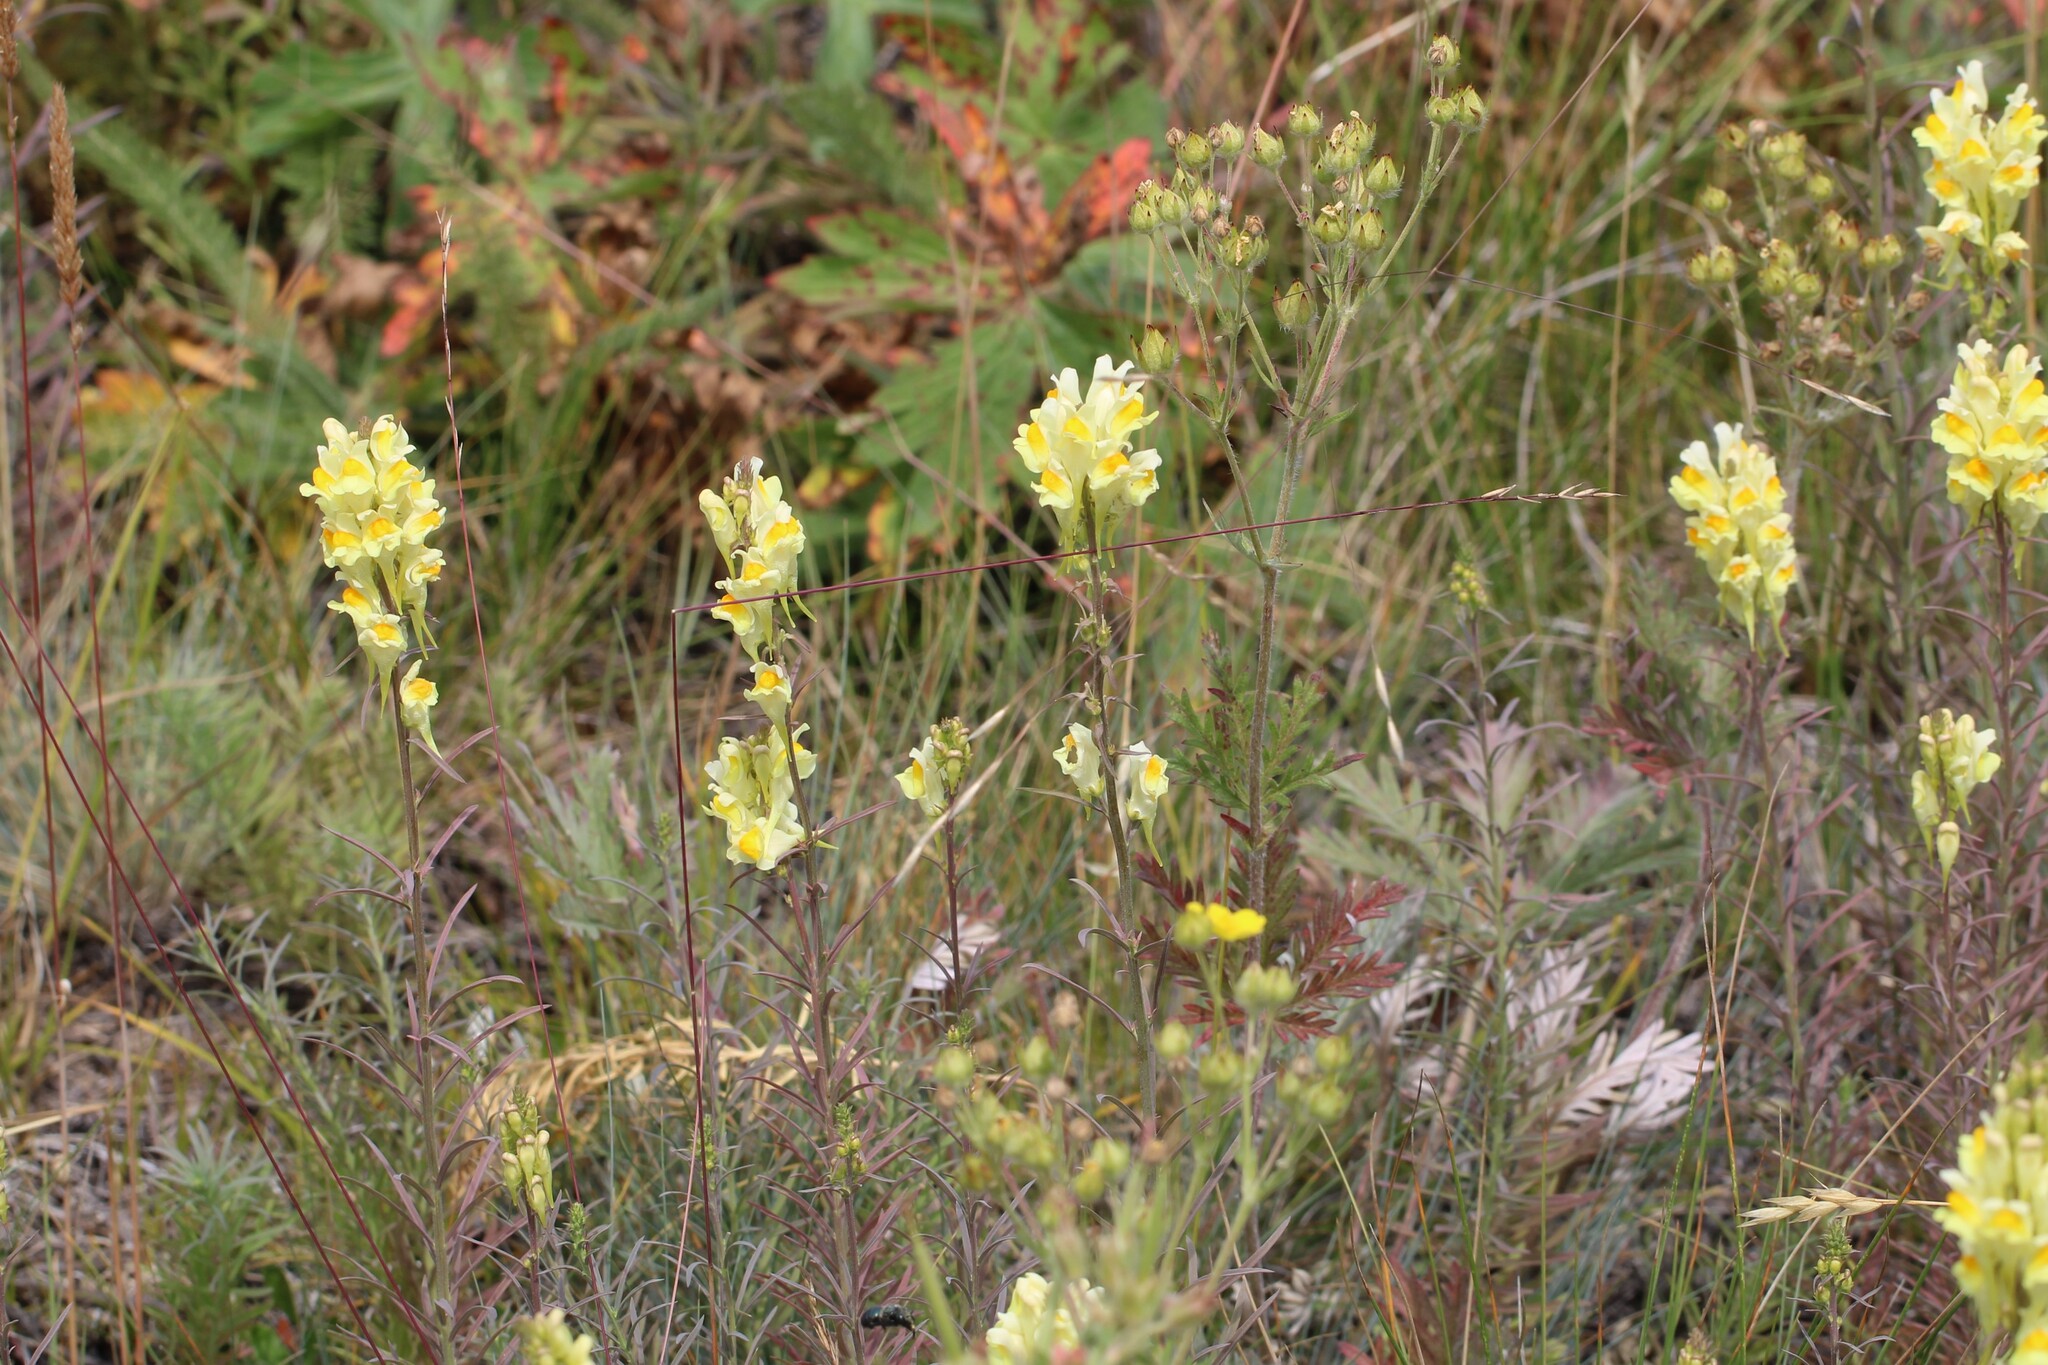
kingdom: Plantae
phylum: Tracheophyta
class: Magnoliopsida
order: Lamiales
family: Plantaginaceae
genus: Linaria
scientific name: Linaria vulgaris
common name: Butter and eggs
